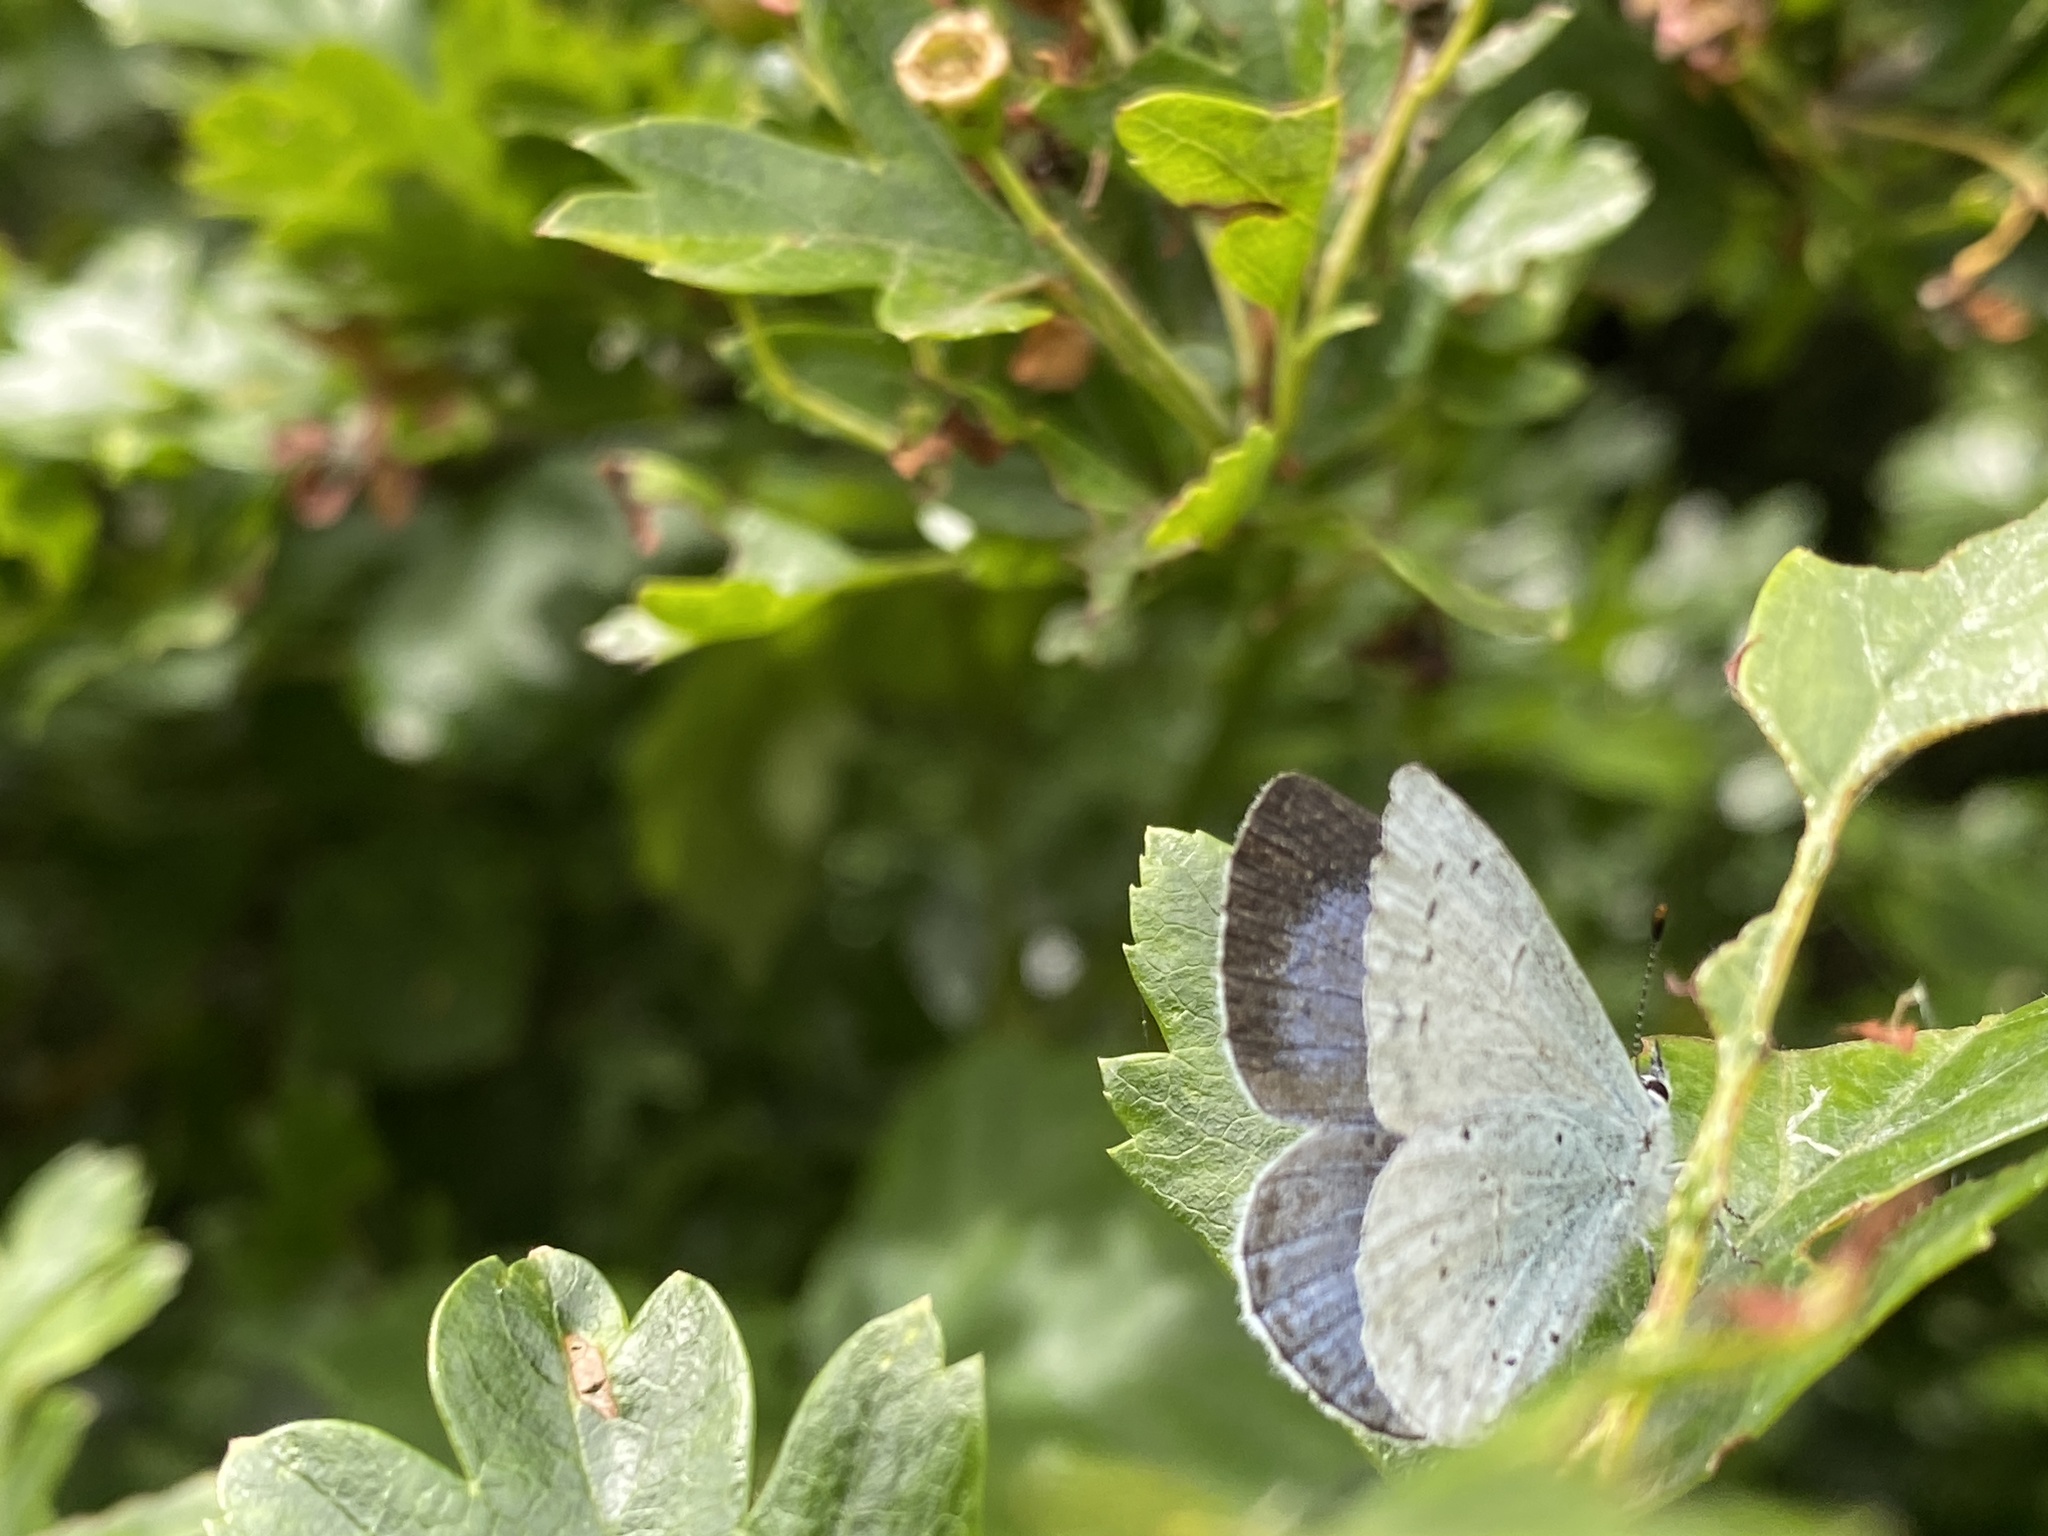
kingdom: Animalia
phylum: Arthropoda
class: Insecta
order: Lepidoptera
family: Lycaenidae
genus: Celastrina
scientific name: Celastrina argiolus
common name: Holly blue
